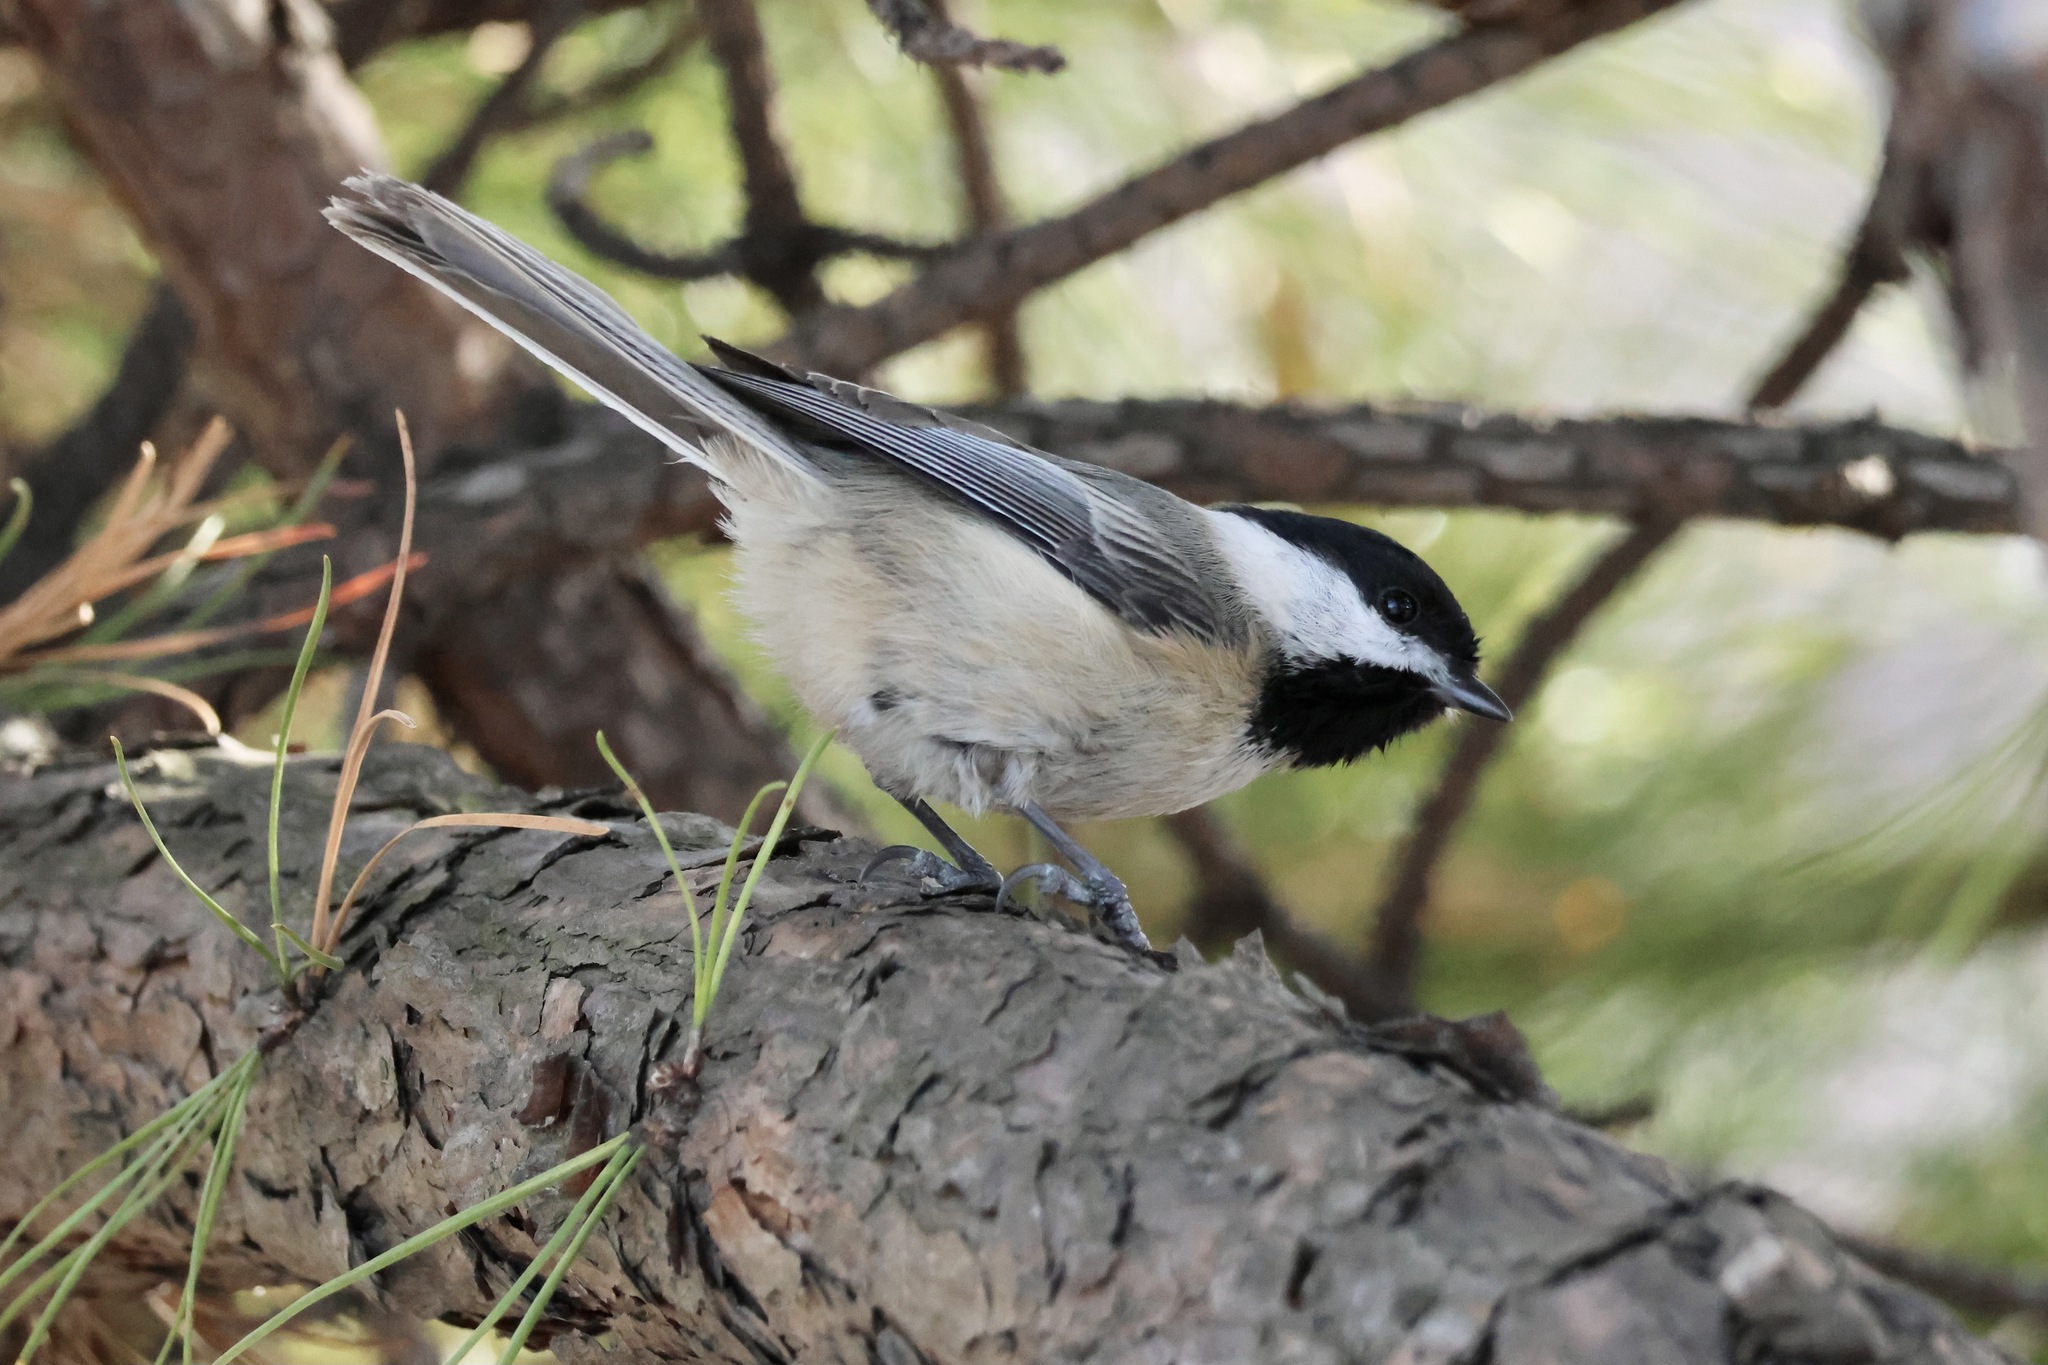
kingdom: Animalia
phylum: Chordata
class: Aves
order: Passeriformes
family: Paridae
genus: Poecile
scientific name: Poecile atricapillus
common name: Black-capped chickadee
